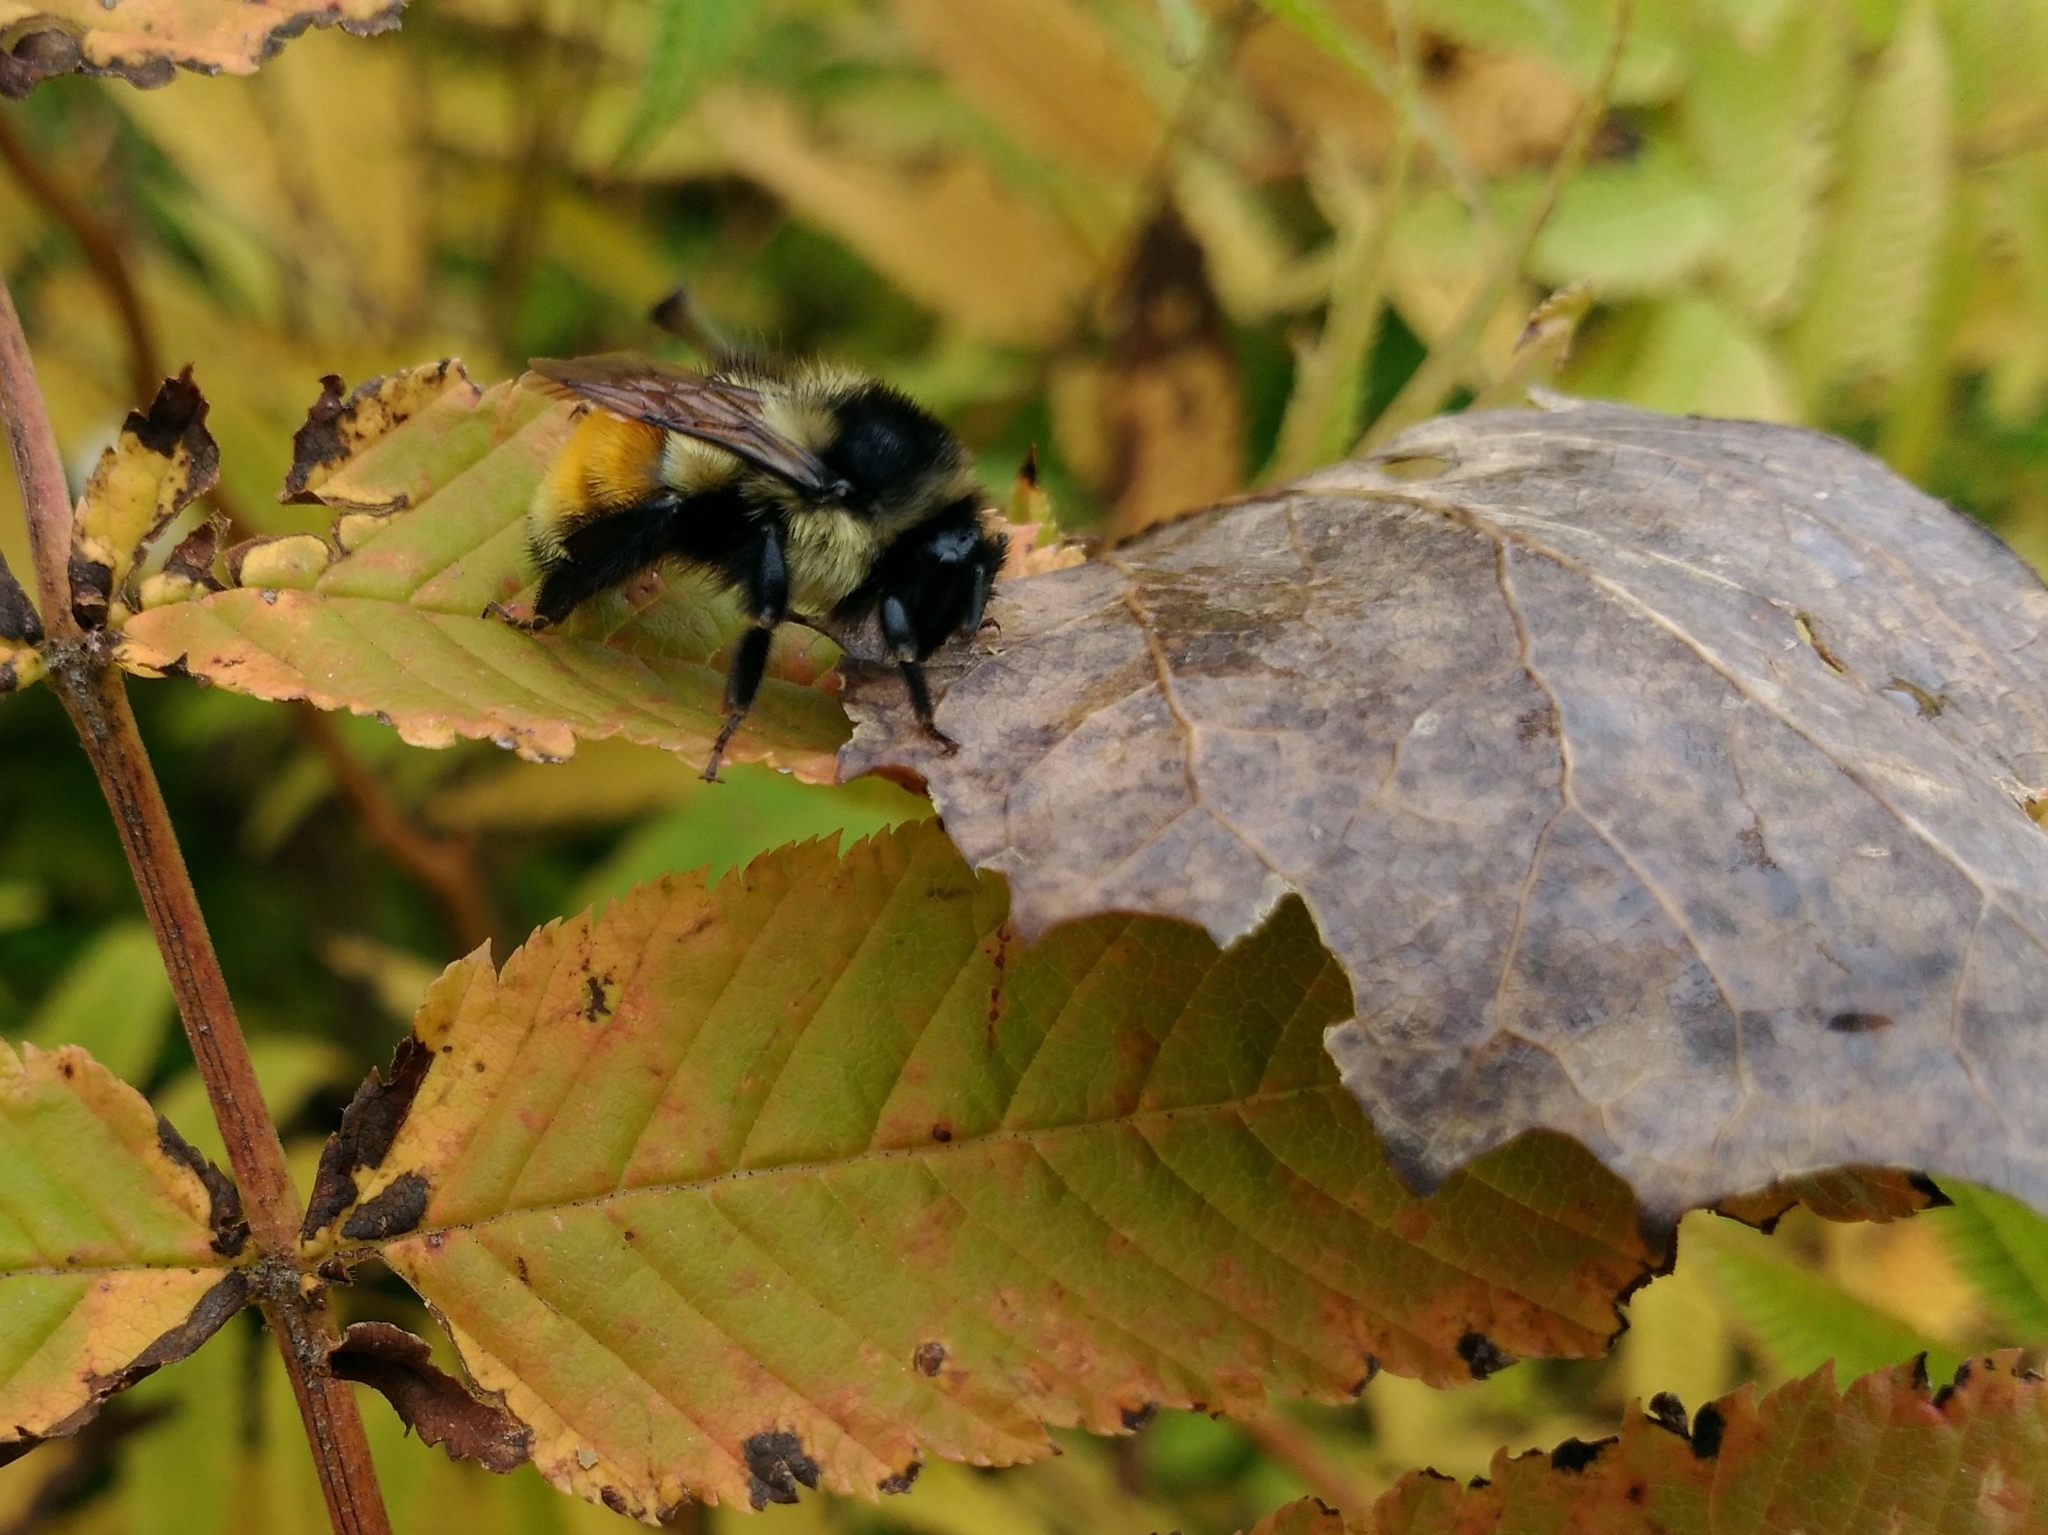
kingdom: Animalia
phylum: Arthropoda
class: Insecta
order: Hymenoptera
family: Apidae
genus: Bombus
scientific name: Bombus ternarius
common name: Tri-colored bumble bee
